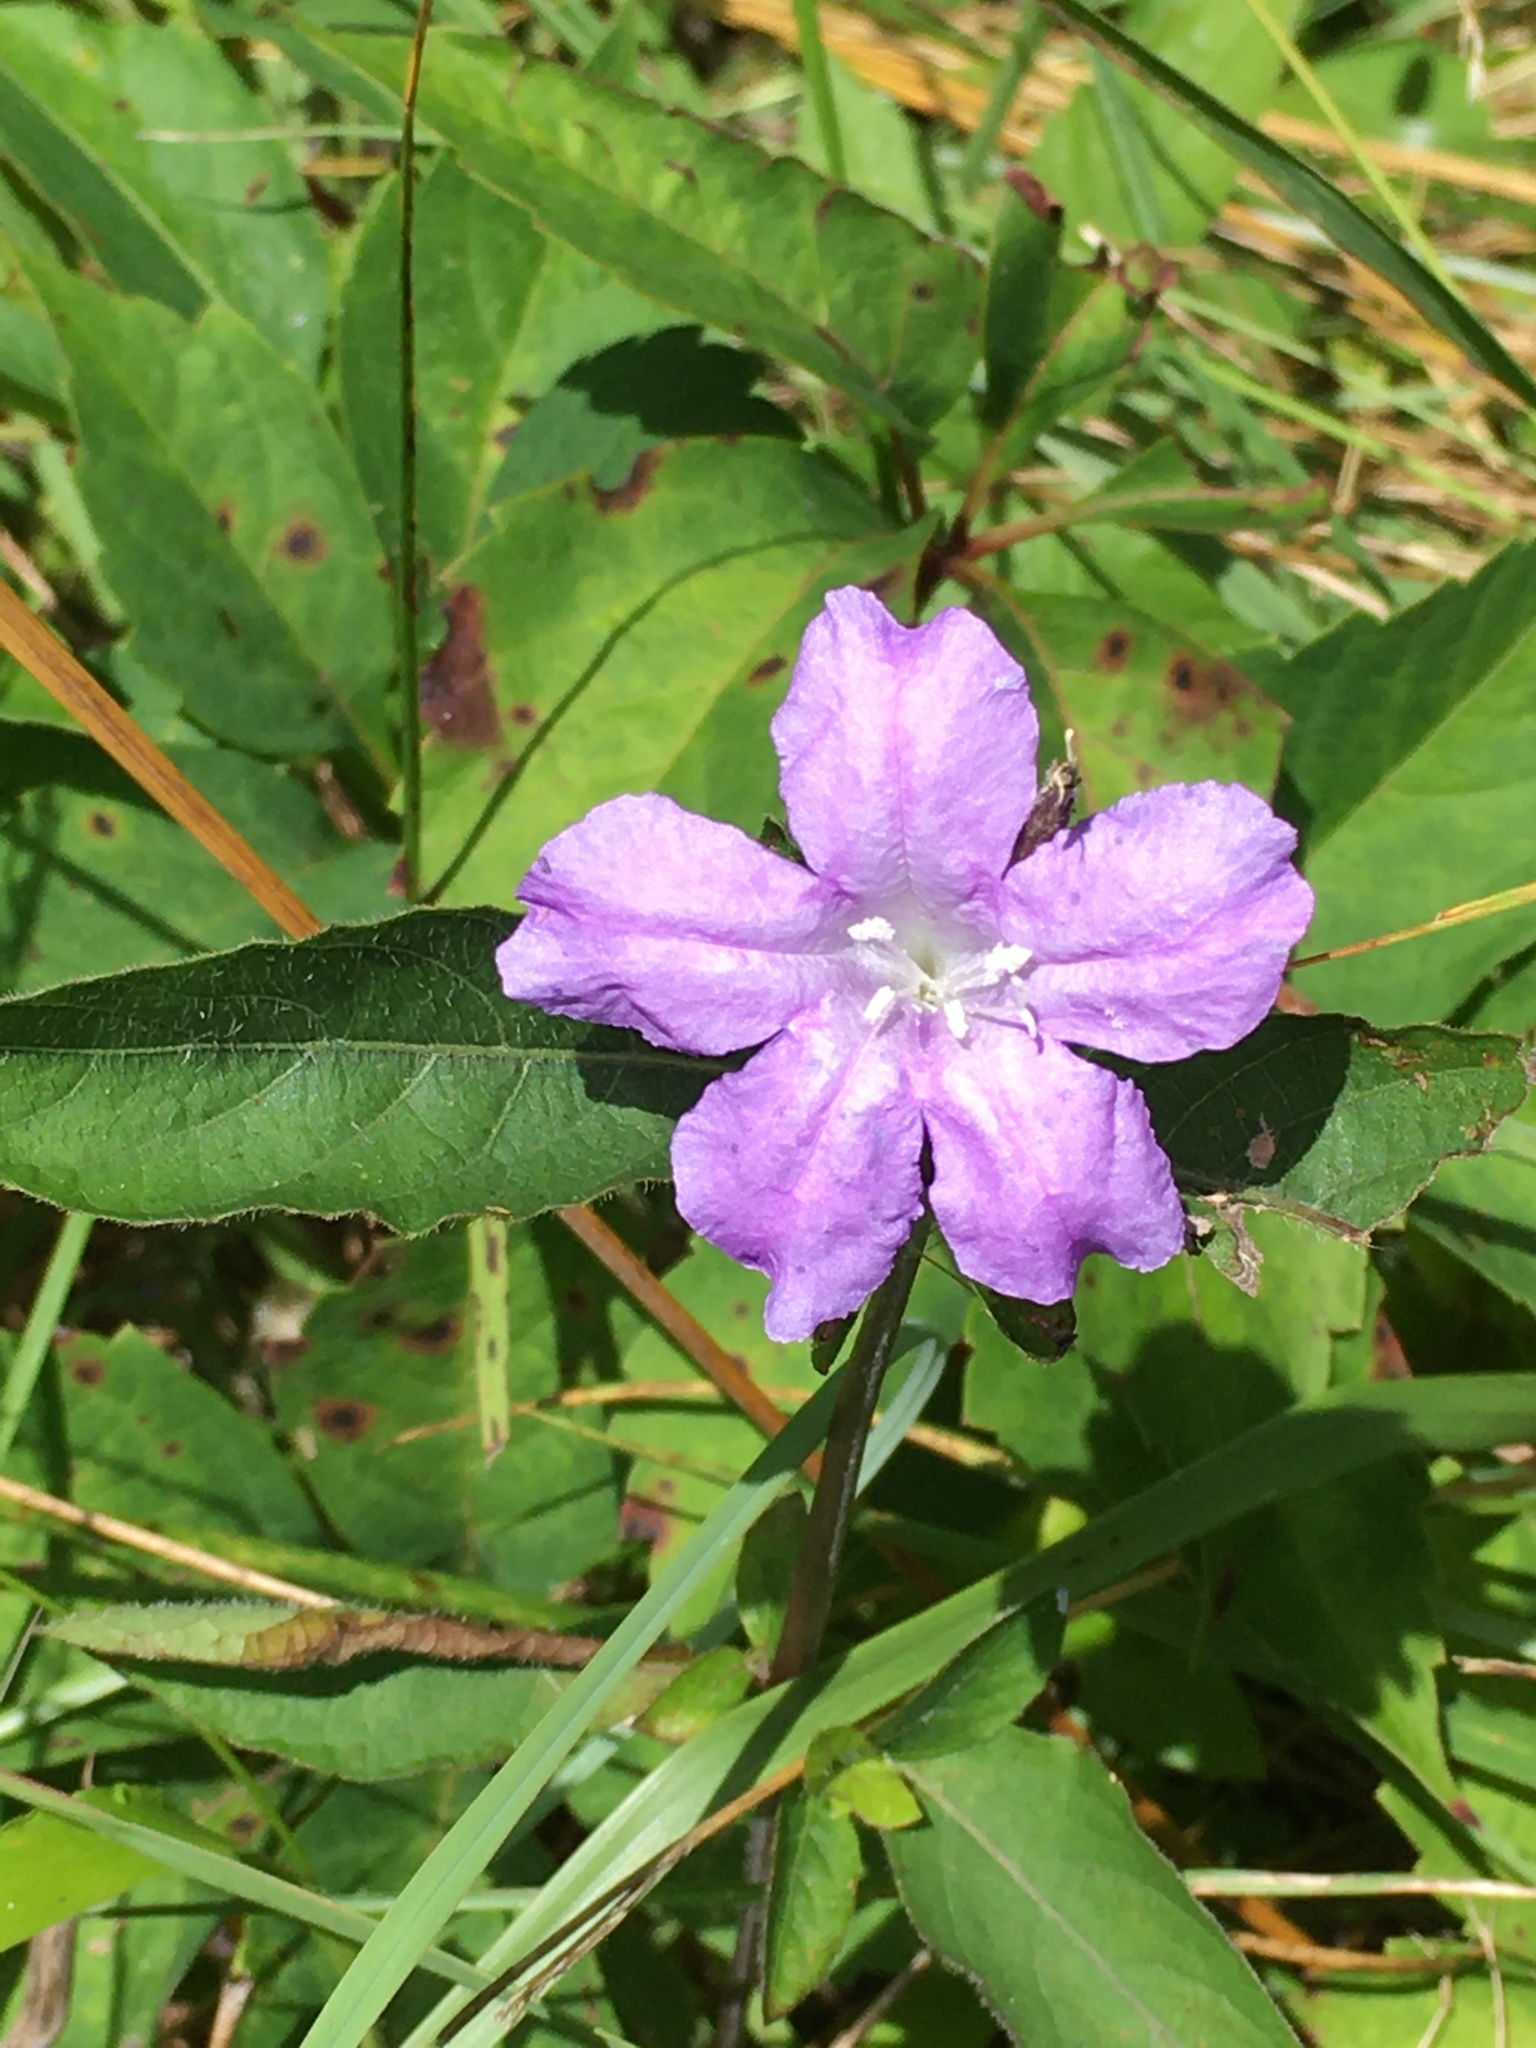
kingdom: Plantae
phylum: Tracheophyta
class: Magnoliopsida
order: Lamiales
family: Acanthaceae
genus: Ruellia
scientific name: Ruellia caroliniensis
